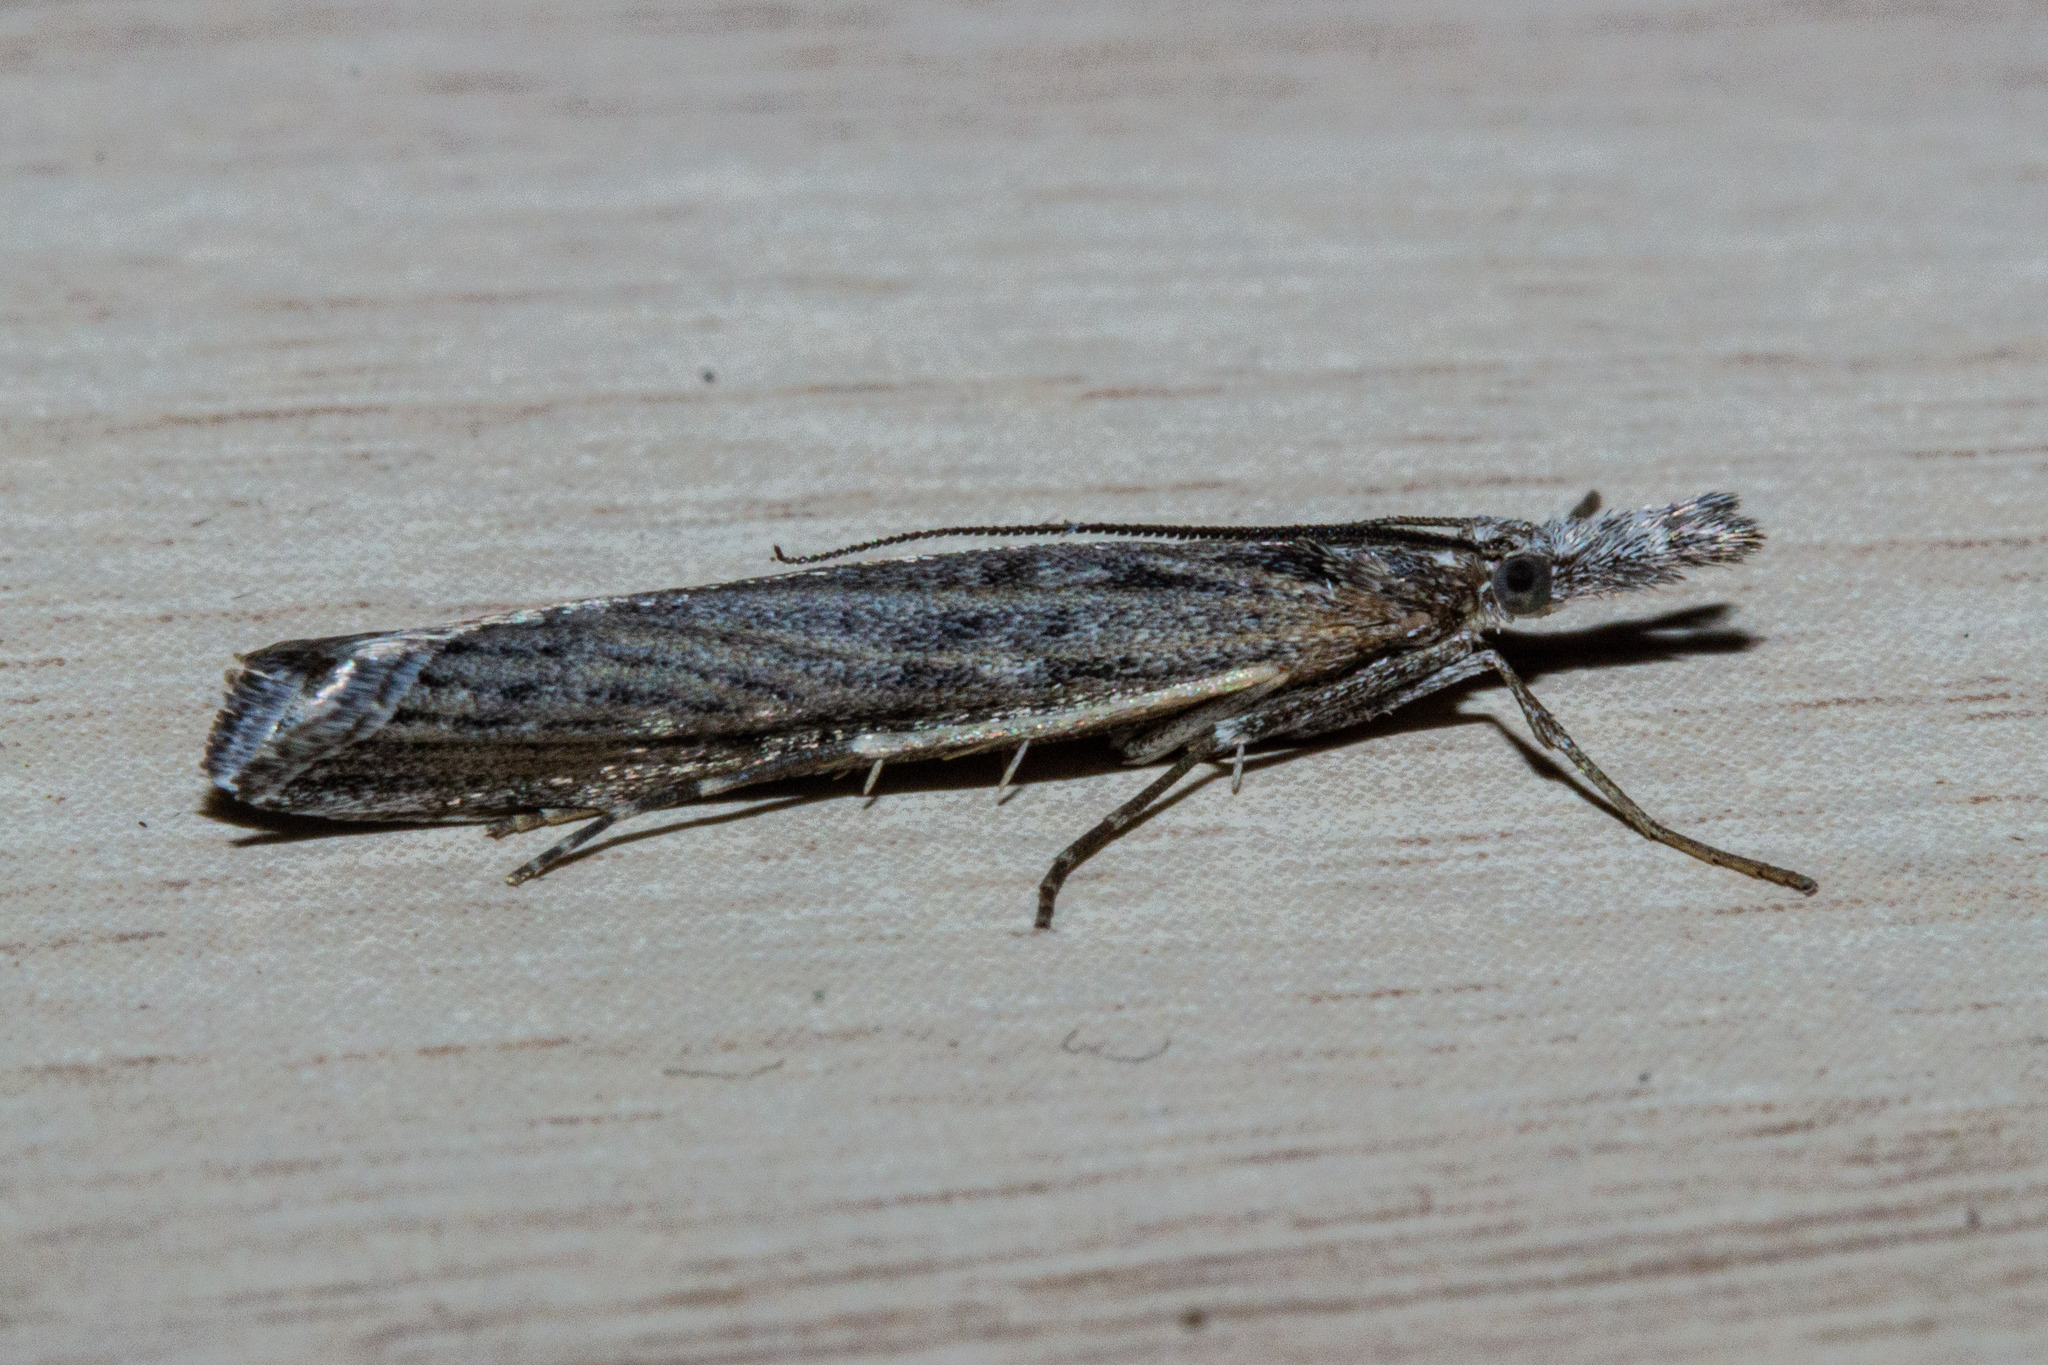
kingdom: Animalia
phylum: Arthropoda
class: Insecta
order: Lepidoptera
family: Crambidae
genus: Orocrambus
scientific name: Orocrambus cyclopicus
